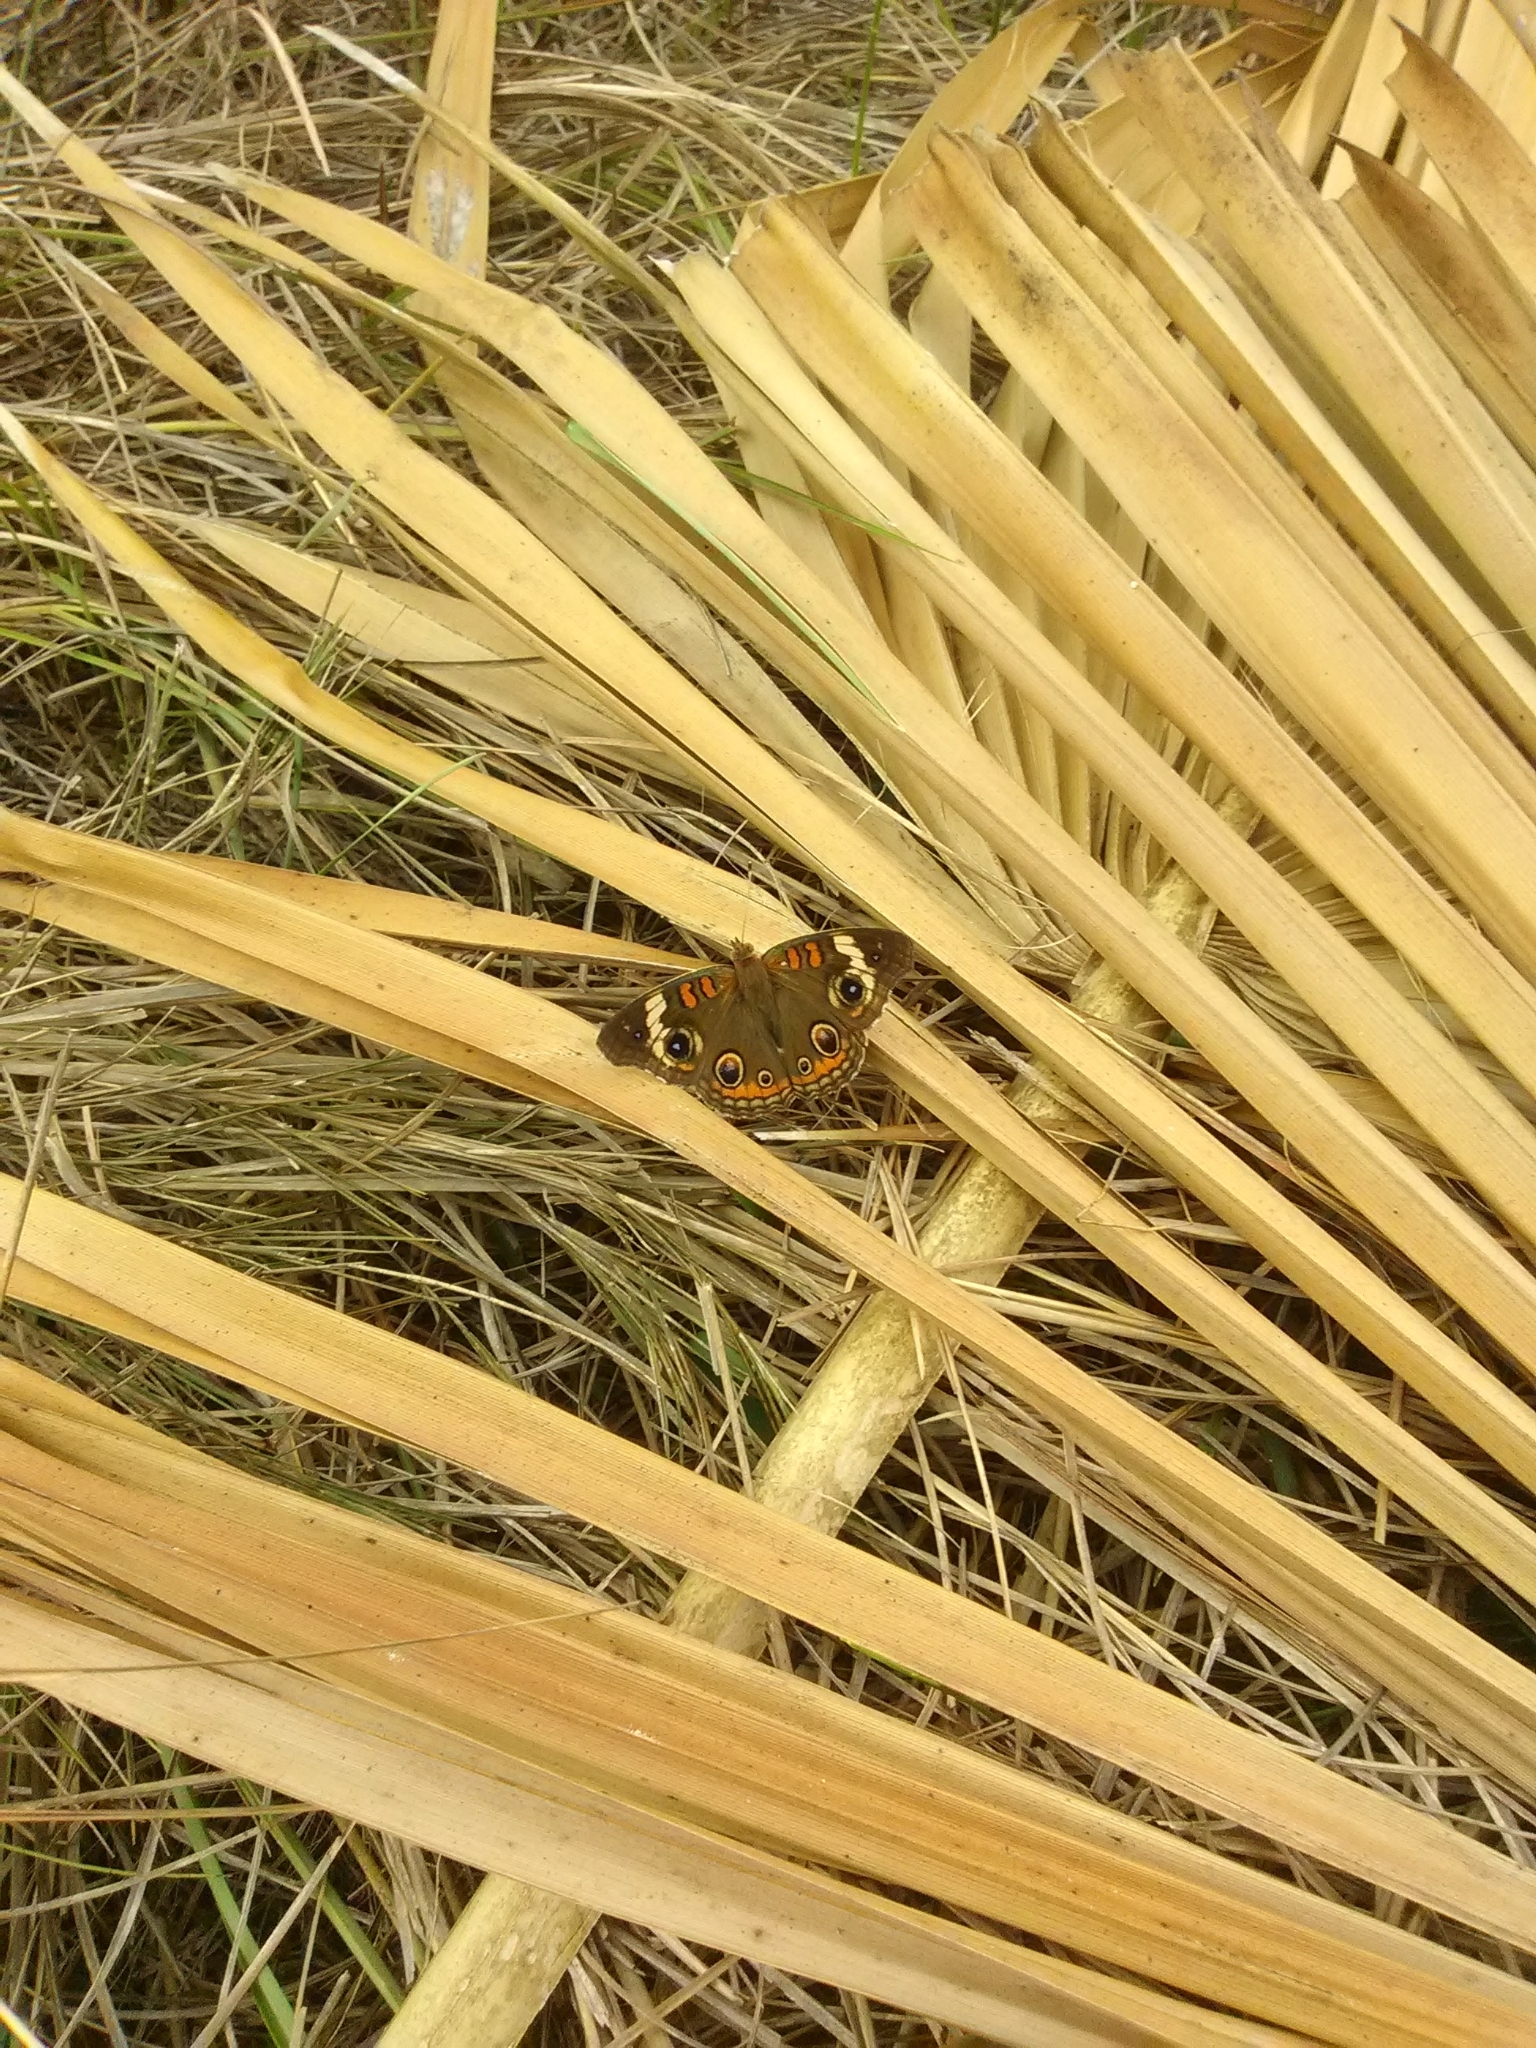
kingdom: Animalia
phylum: Arthropoda
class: Insecta
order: Lepidoptera
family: Nymphalidae
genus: Junonia
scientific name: Junonia coenia
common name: Common buckeye
